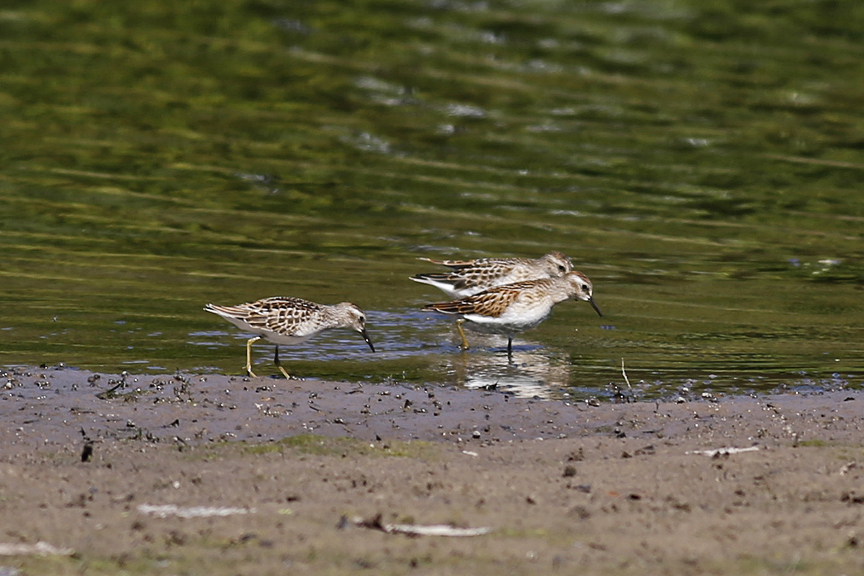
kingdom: Animalia
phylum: Chordata
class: Aves
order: Charadriiformes
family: Scolopacidae
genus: Calidris
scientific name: Calidris minutilla
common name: Least sandpiper
